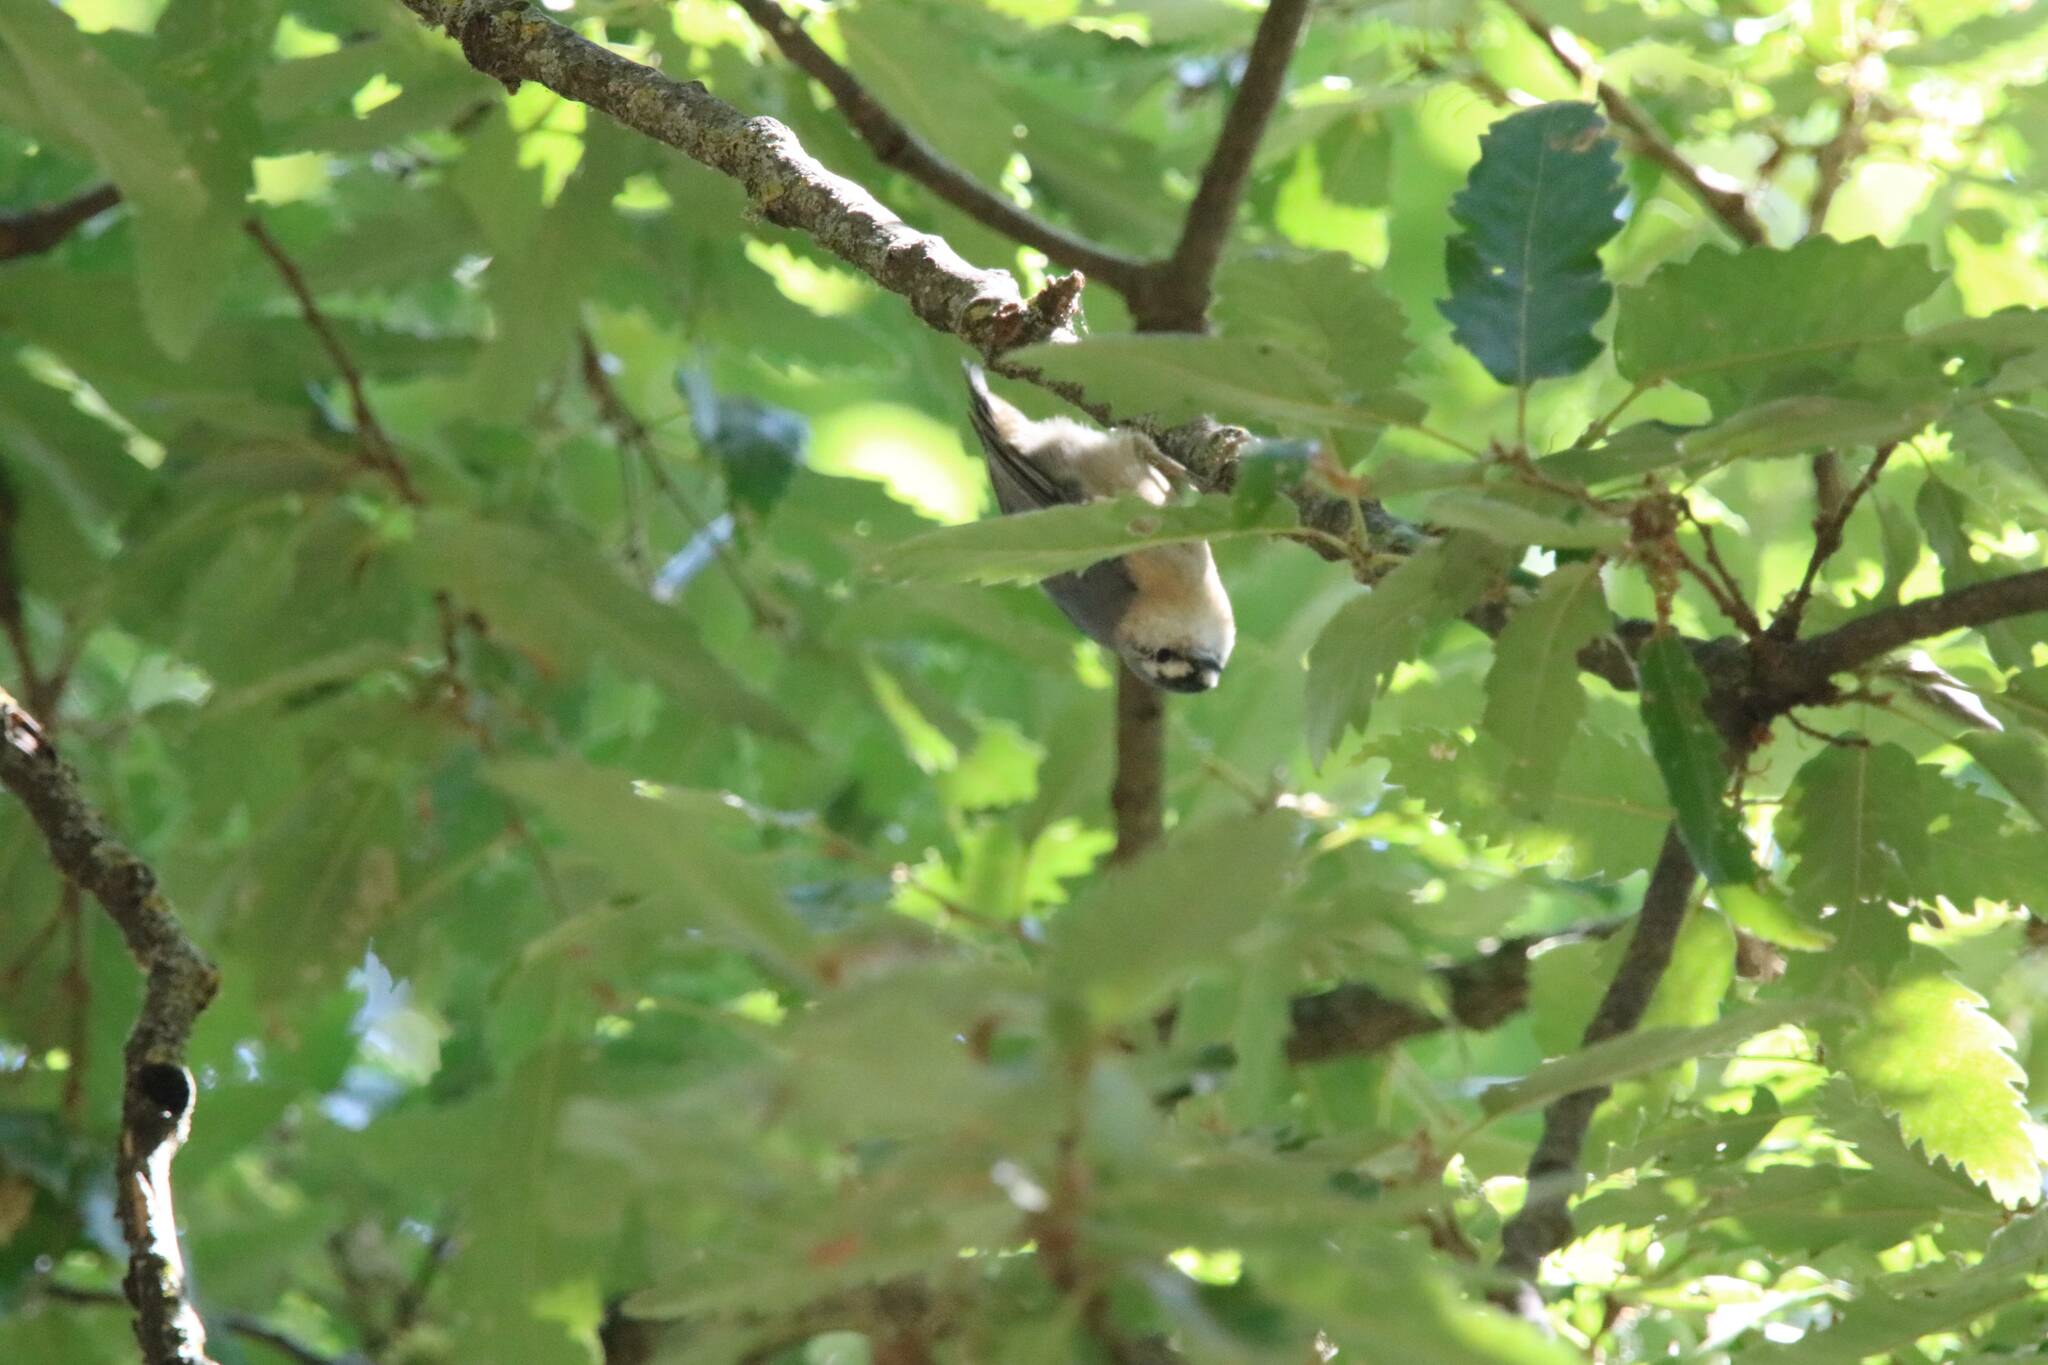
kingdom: Animalia
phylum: Chordata
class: Aves
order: Passeriformes
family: Sittidae
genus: Sitta
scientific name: Sitta ledanti
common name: Algerian nuthatch
